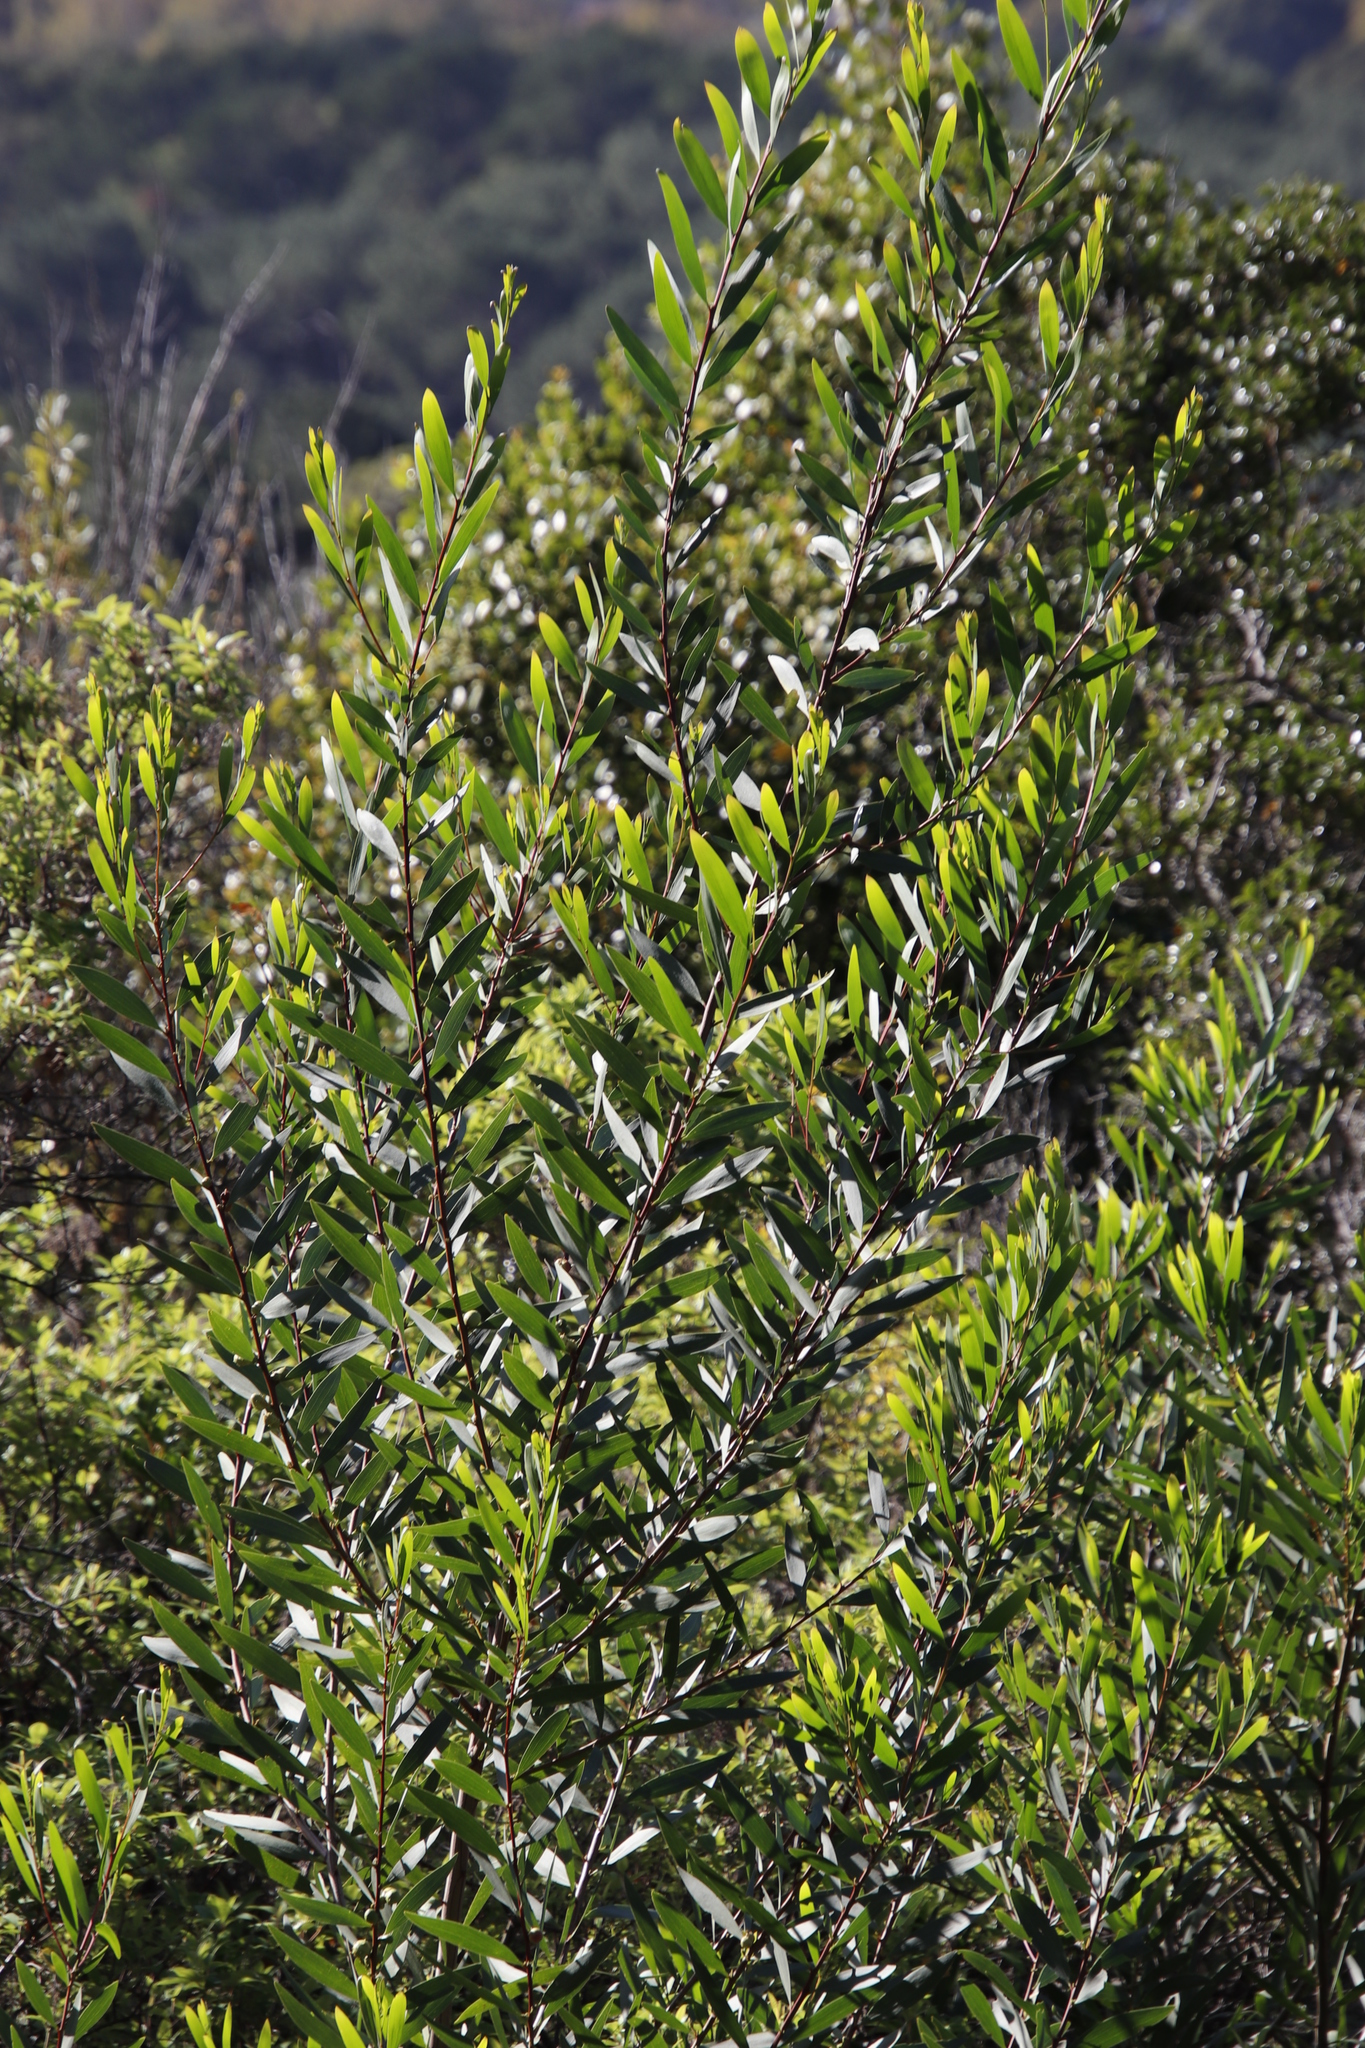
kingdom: Plantae
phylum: Tracheophyta
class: Magnoliopsida
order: Fabales
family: Fabaceae
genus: Acacia
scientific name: Acacia longifolia
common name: Sydney golden wattle
